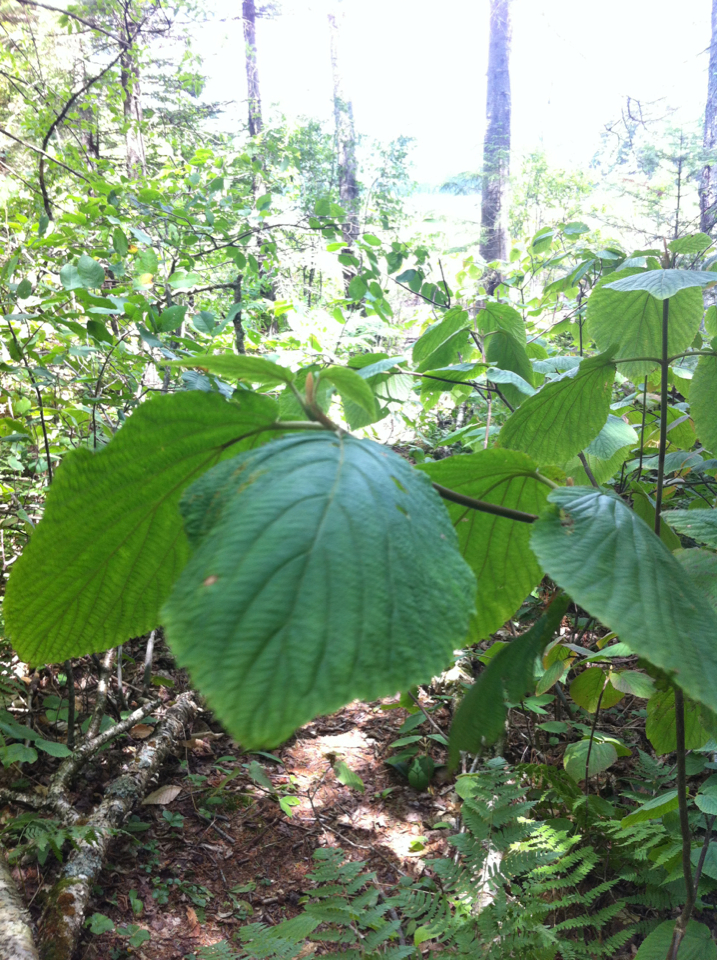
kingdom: Plantae
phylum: Tracheophyta
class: Magnoliopsida
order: Dipsacales
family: Viburnaceae
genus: Viburnum
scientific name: Viburnum lantanoides
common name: Hobblebush
